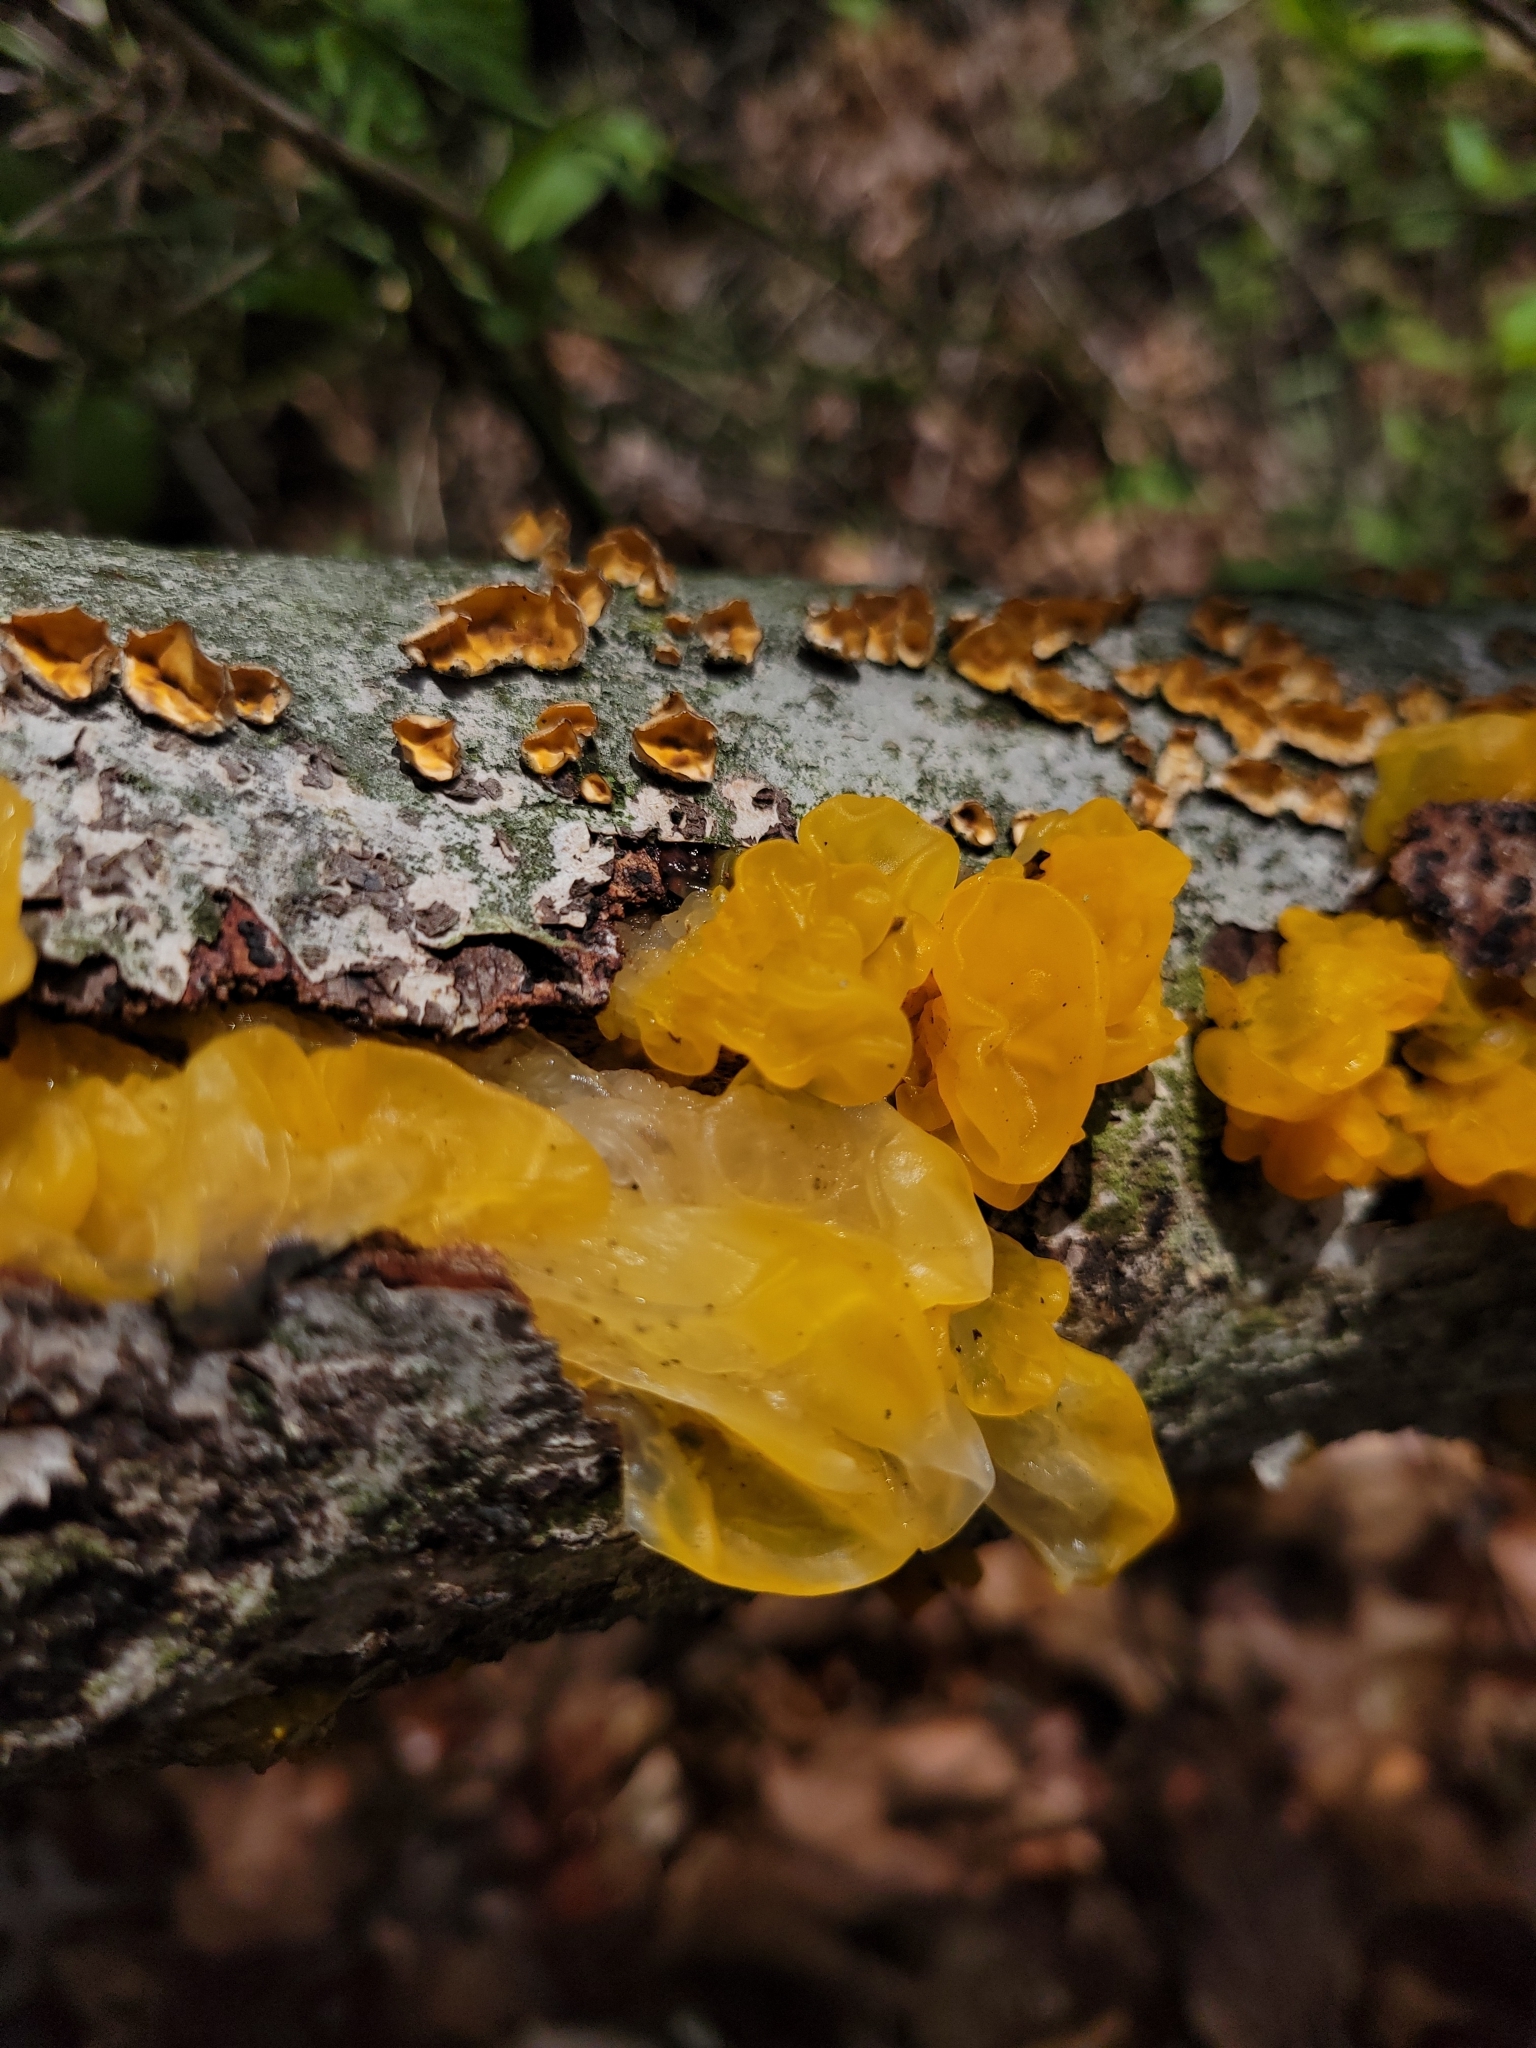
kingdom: Fungi
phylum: Basidiomycota
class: Tremellomycetes
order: Tremellales
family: Naemateliaceae
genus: Naematelia
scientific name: Naematelia aurantia
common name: Golden ear
